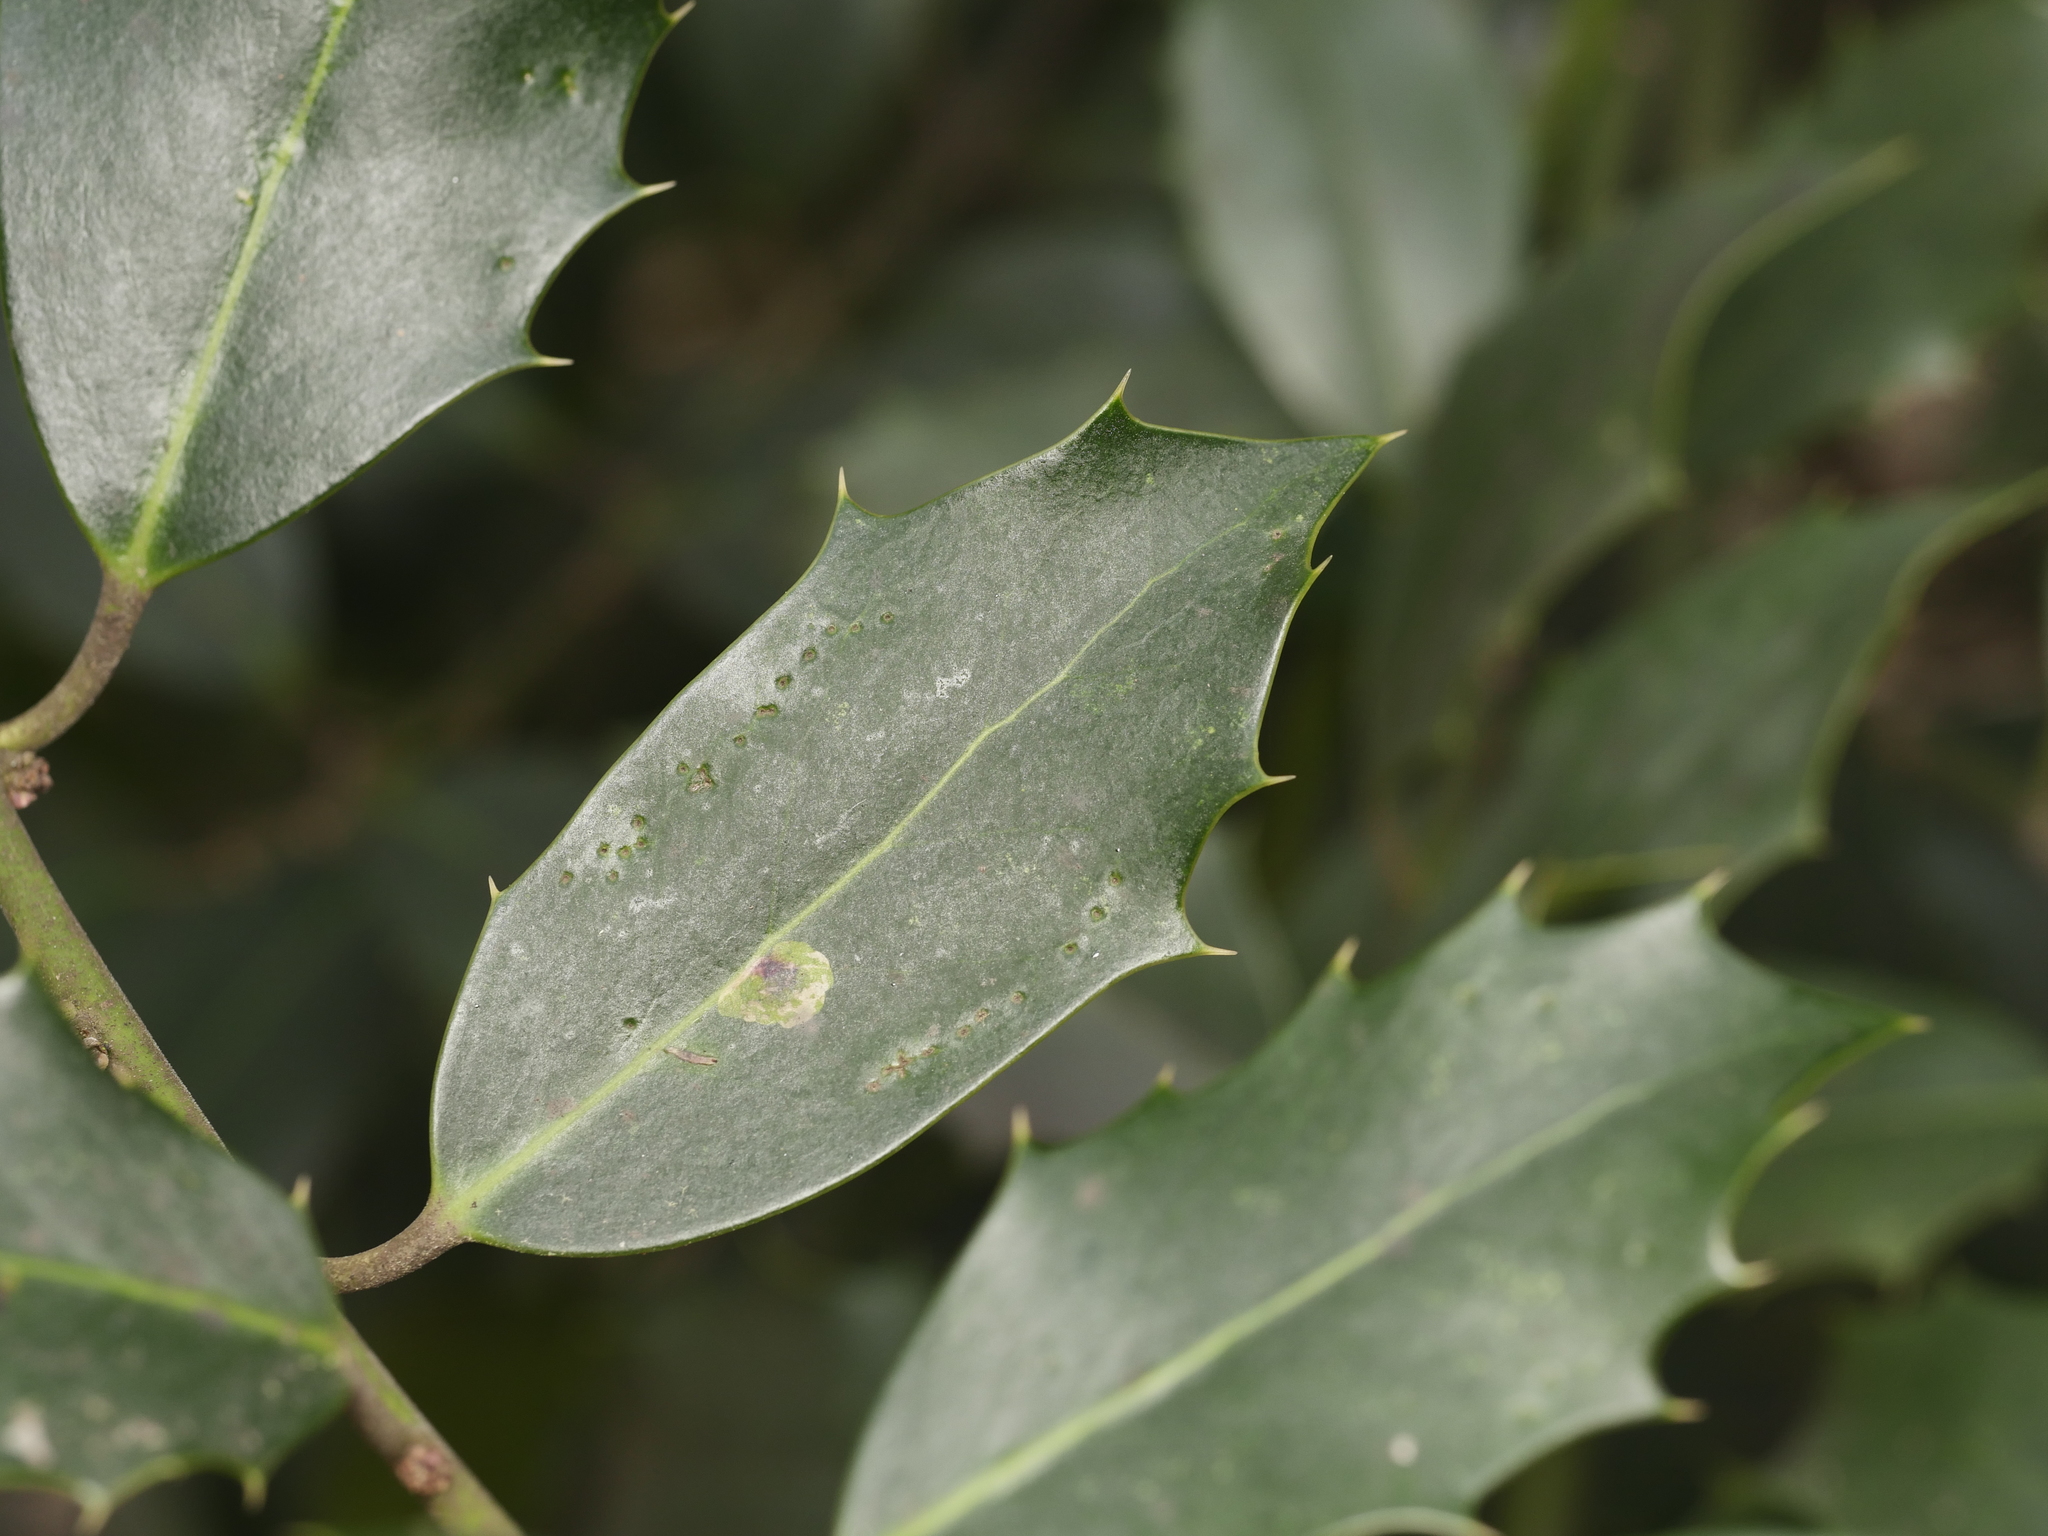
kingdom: Plantae
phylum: Tracheophyta
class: Magnoliopsida
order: Aquifoliales
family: Aquifoliaceae
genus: Ilex
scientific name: Ilex aquifolium
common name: English holly
